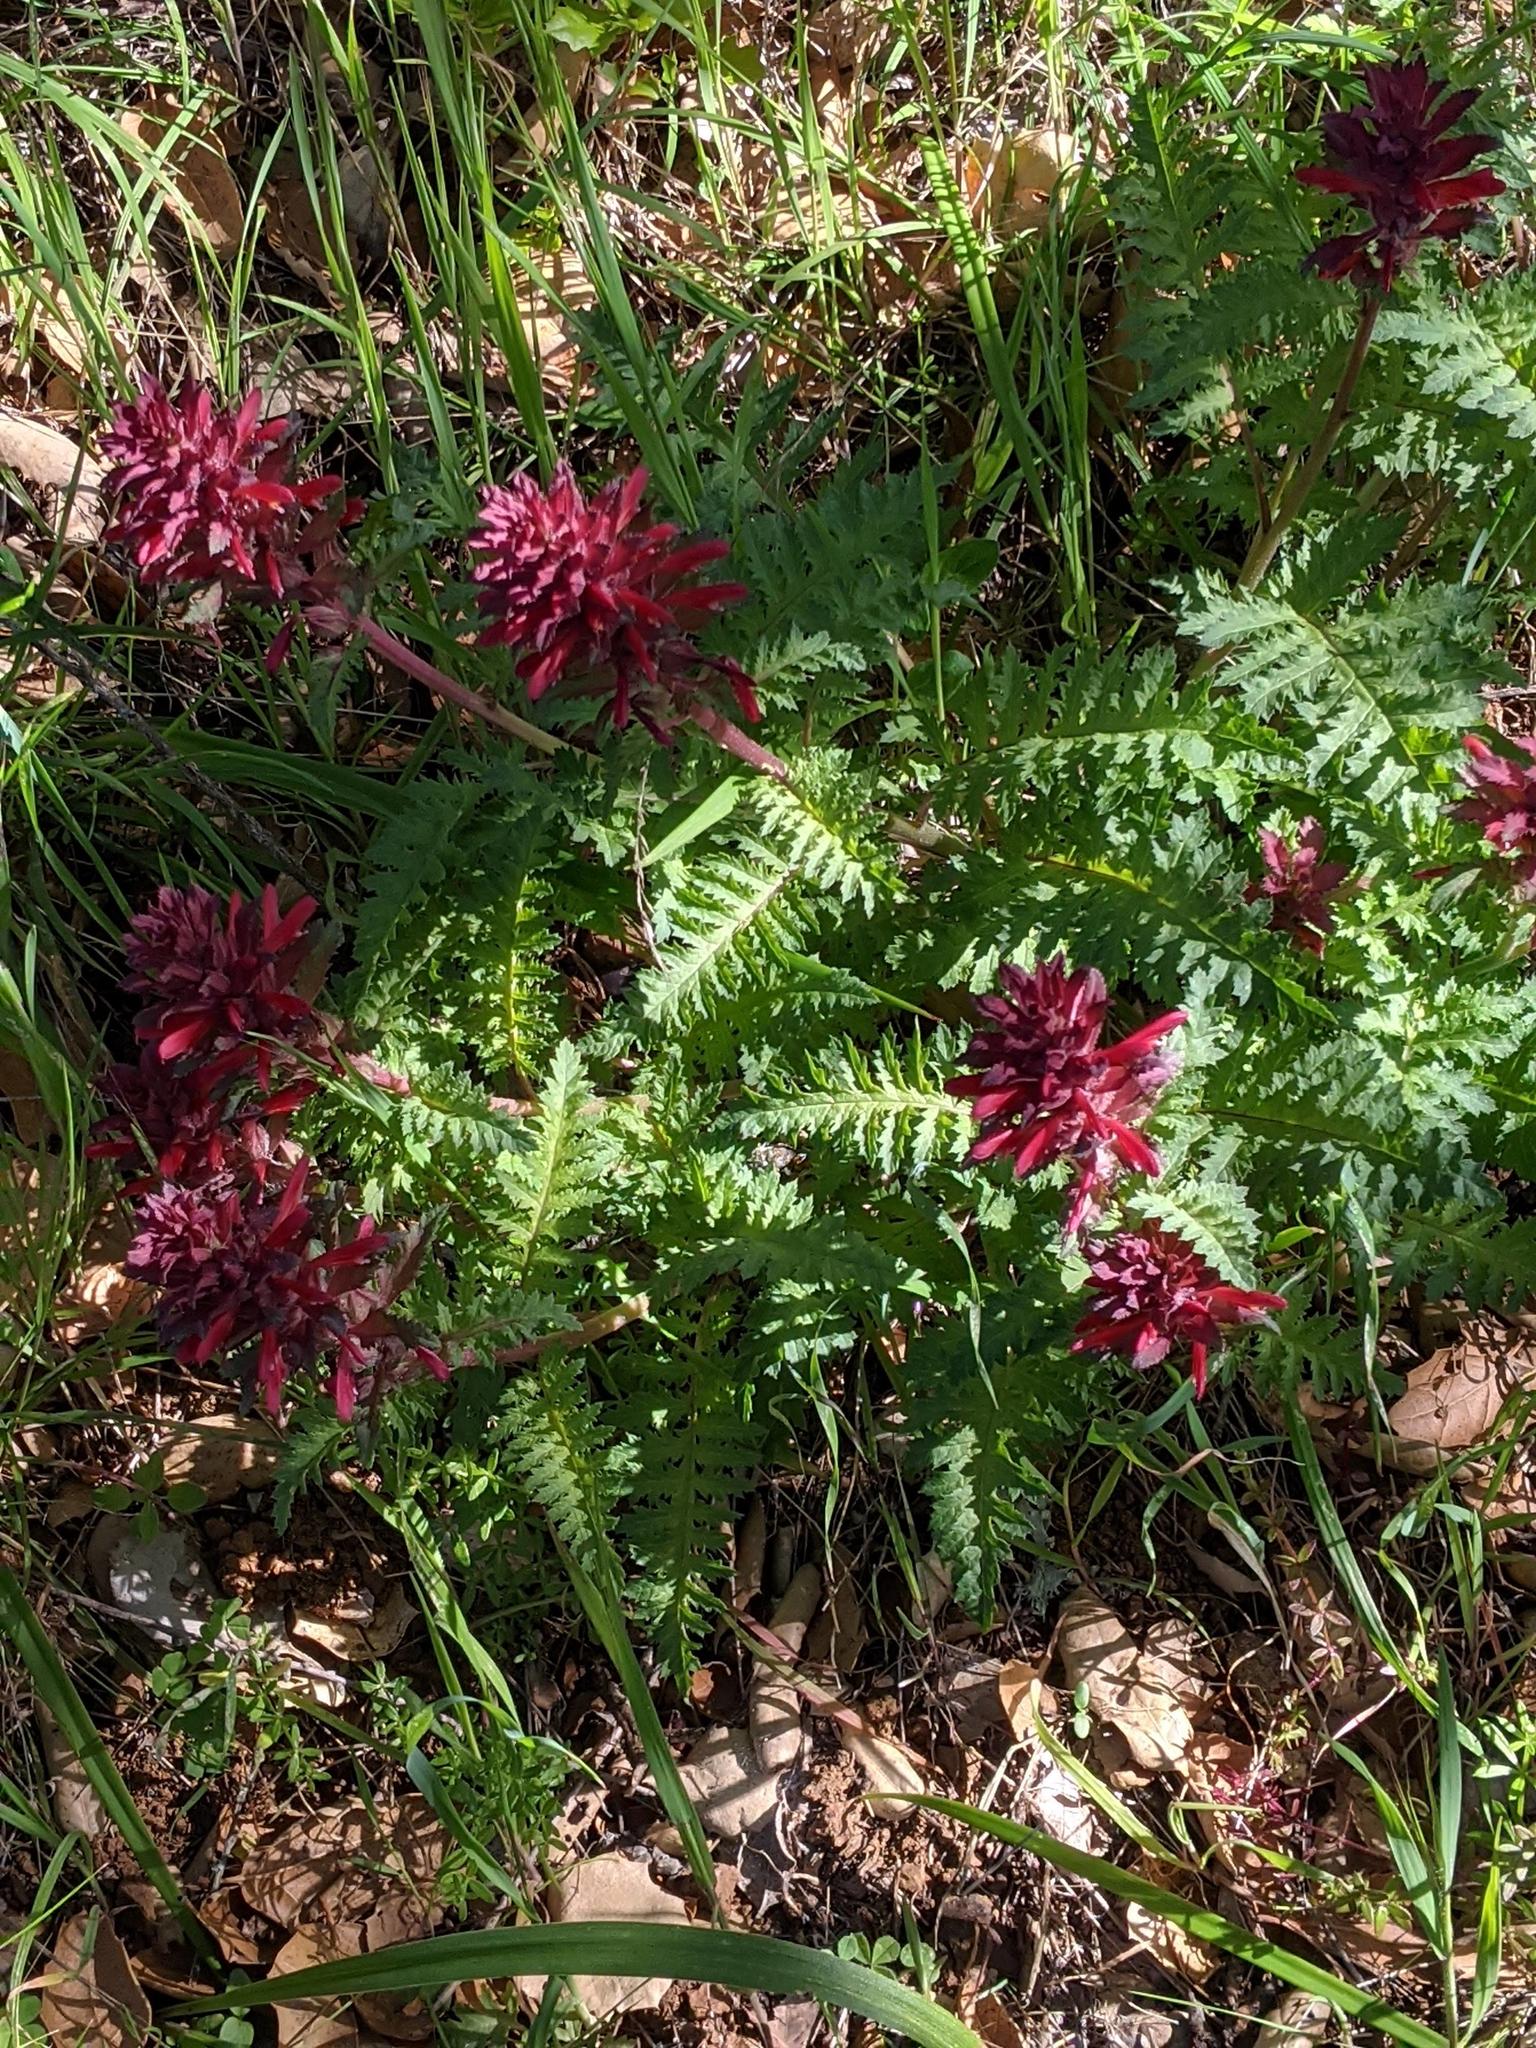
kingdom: Plantae
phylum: Tracheophyta
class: Magnoliopsida
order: Lamiales
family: Orobanchaceae
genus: Pedicularis
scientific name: Pedicularis densiflora
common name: Indian warrior
